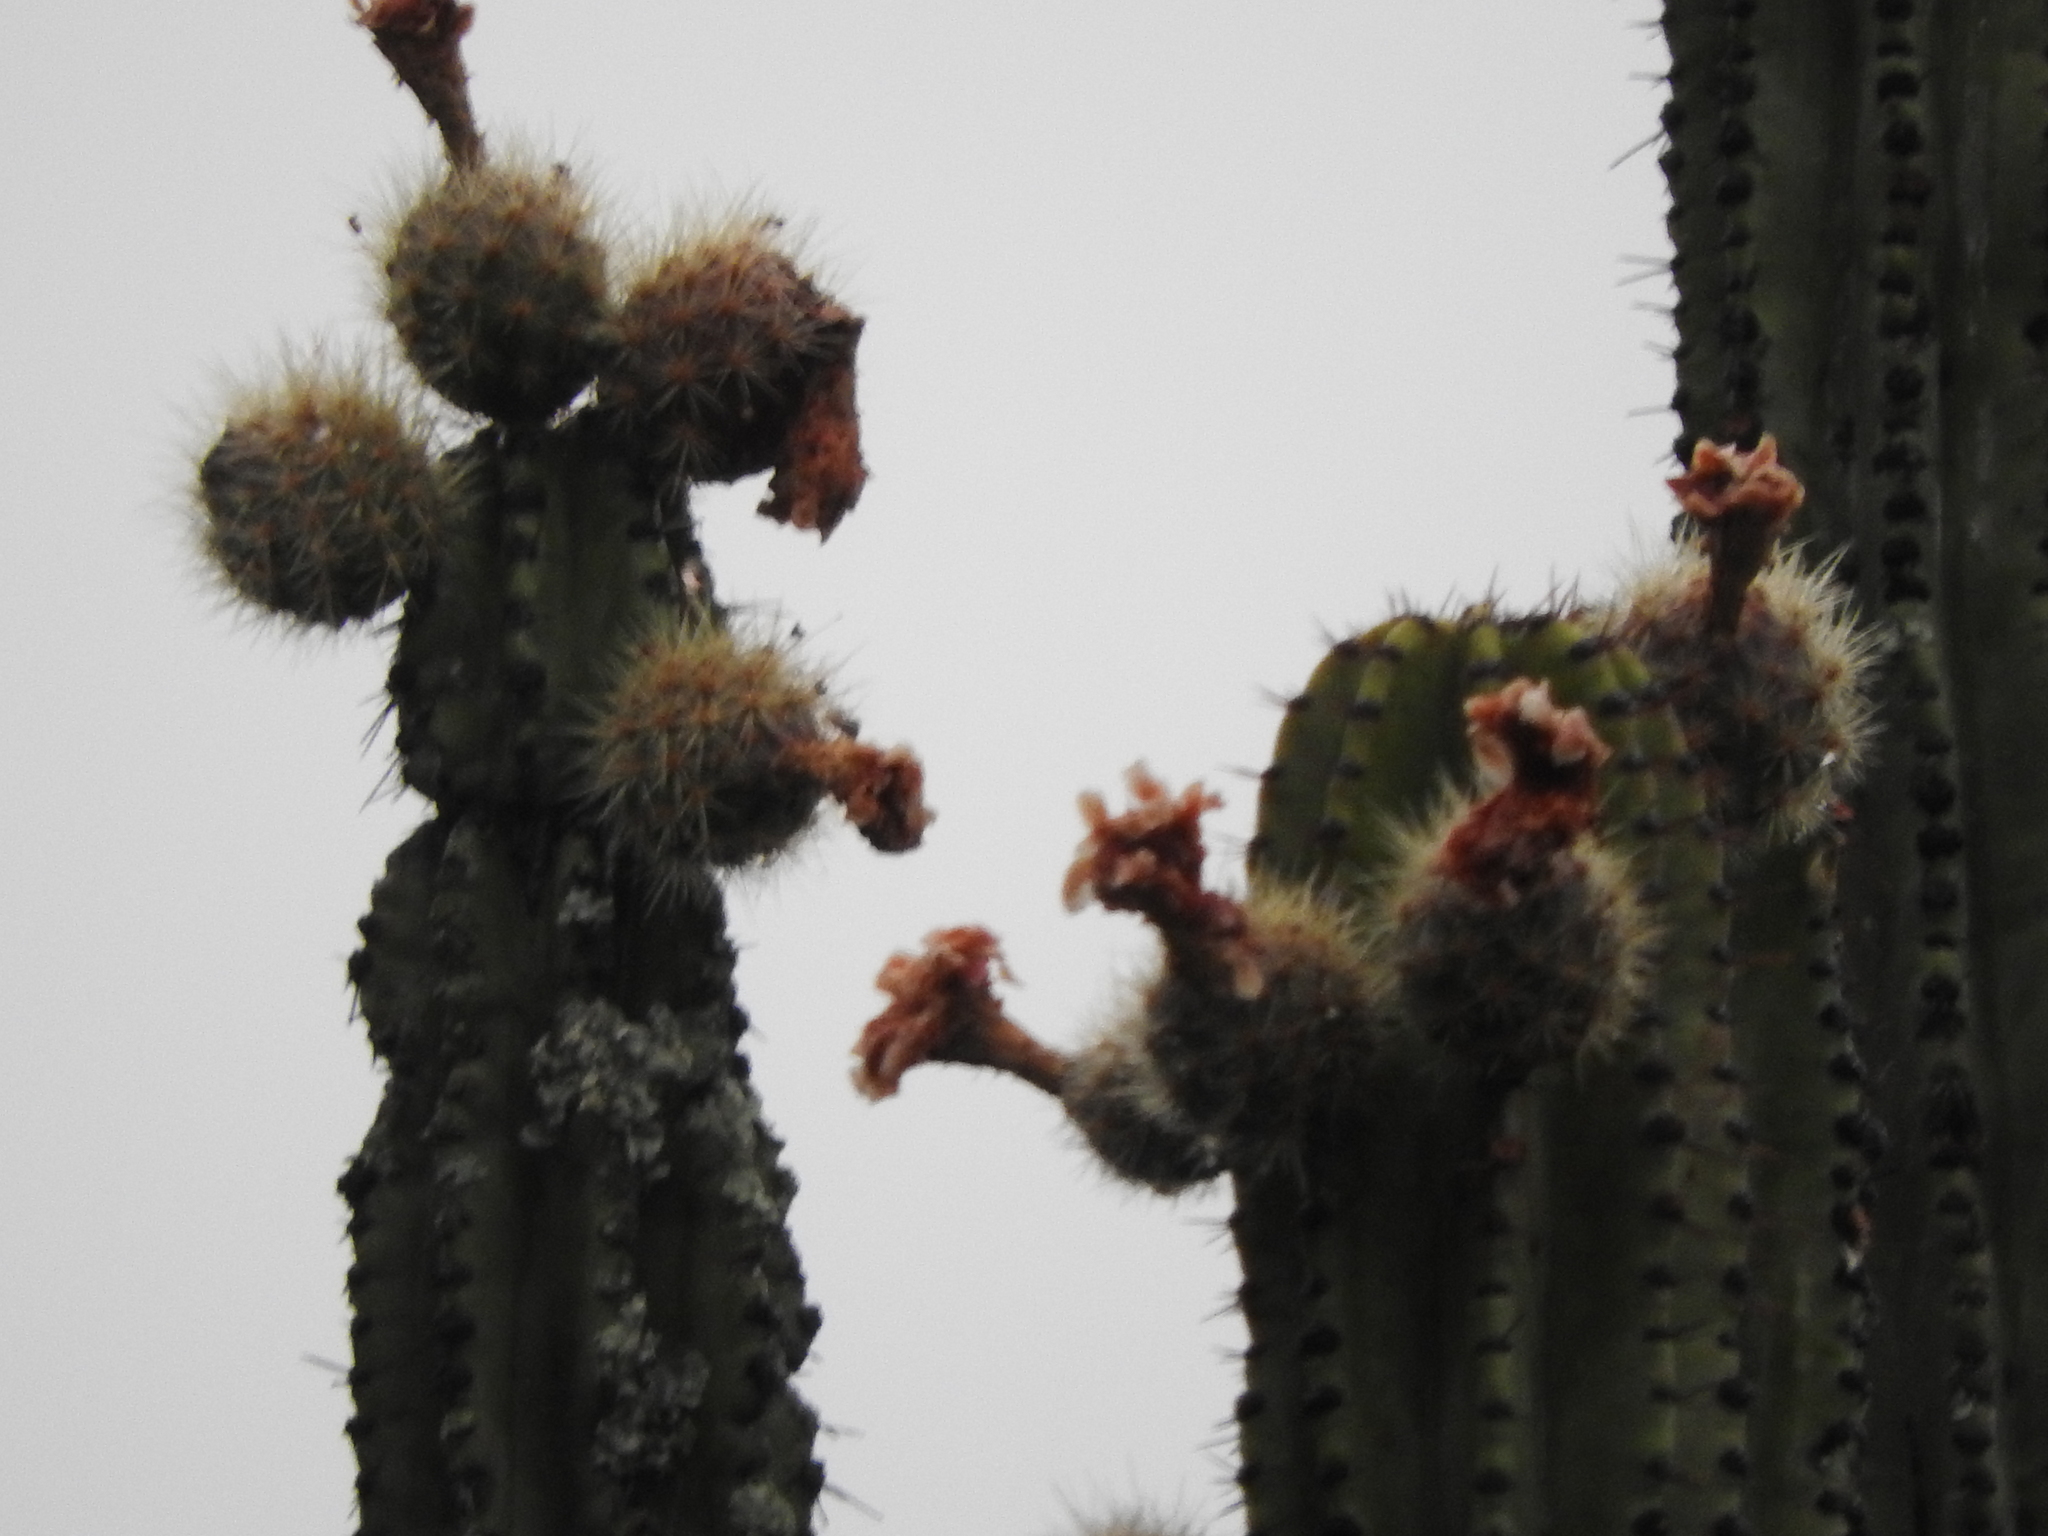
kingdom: Plantae
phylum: Tracheophyta
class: Magnoliopsida
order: Caryophyllales
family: Cactaceae
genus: Stenocereus
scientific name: Stenocereus queretaroensis
